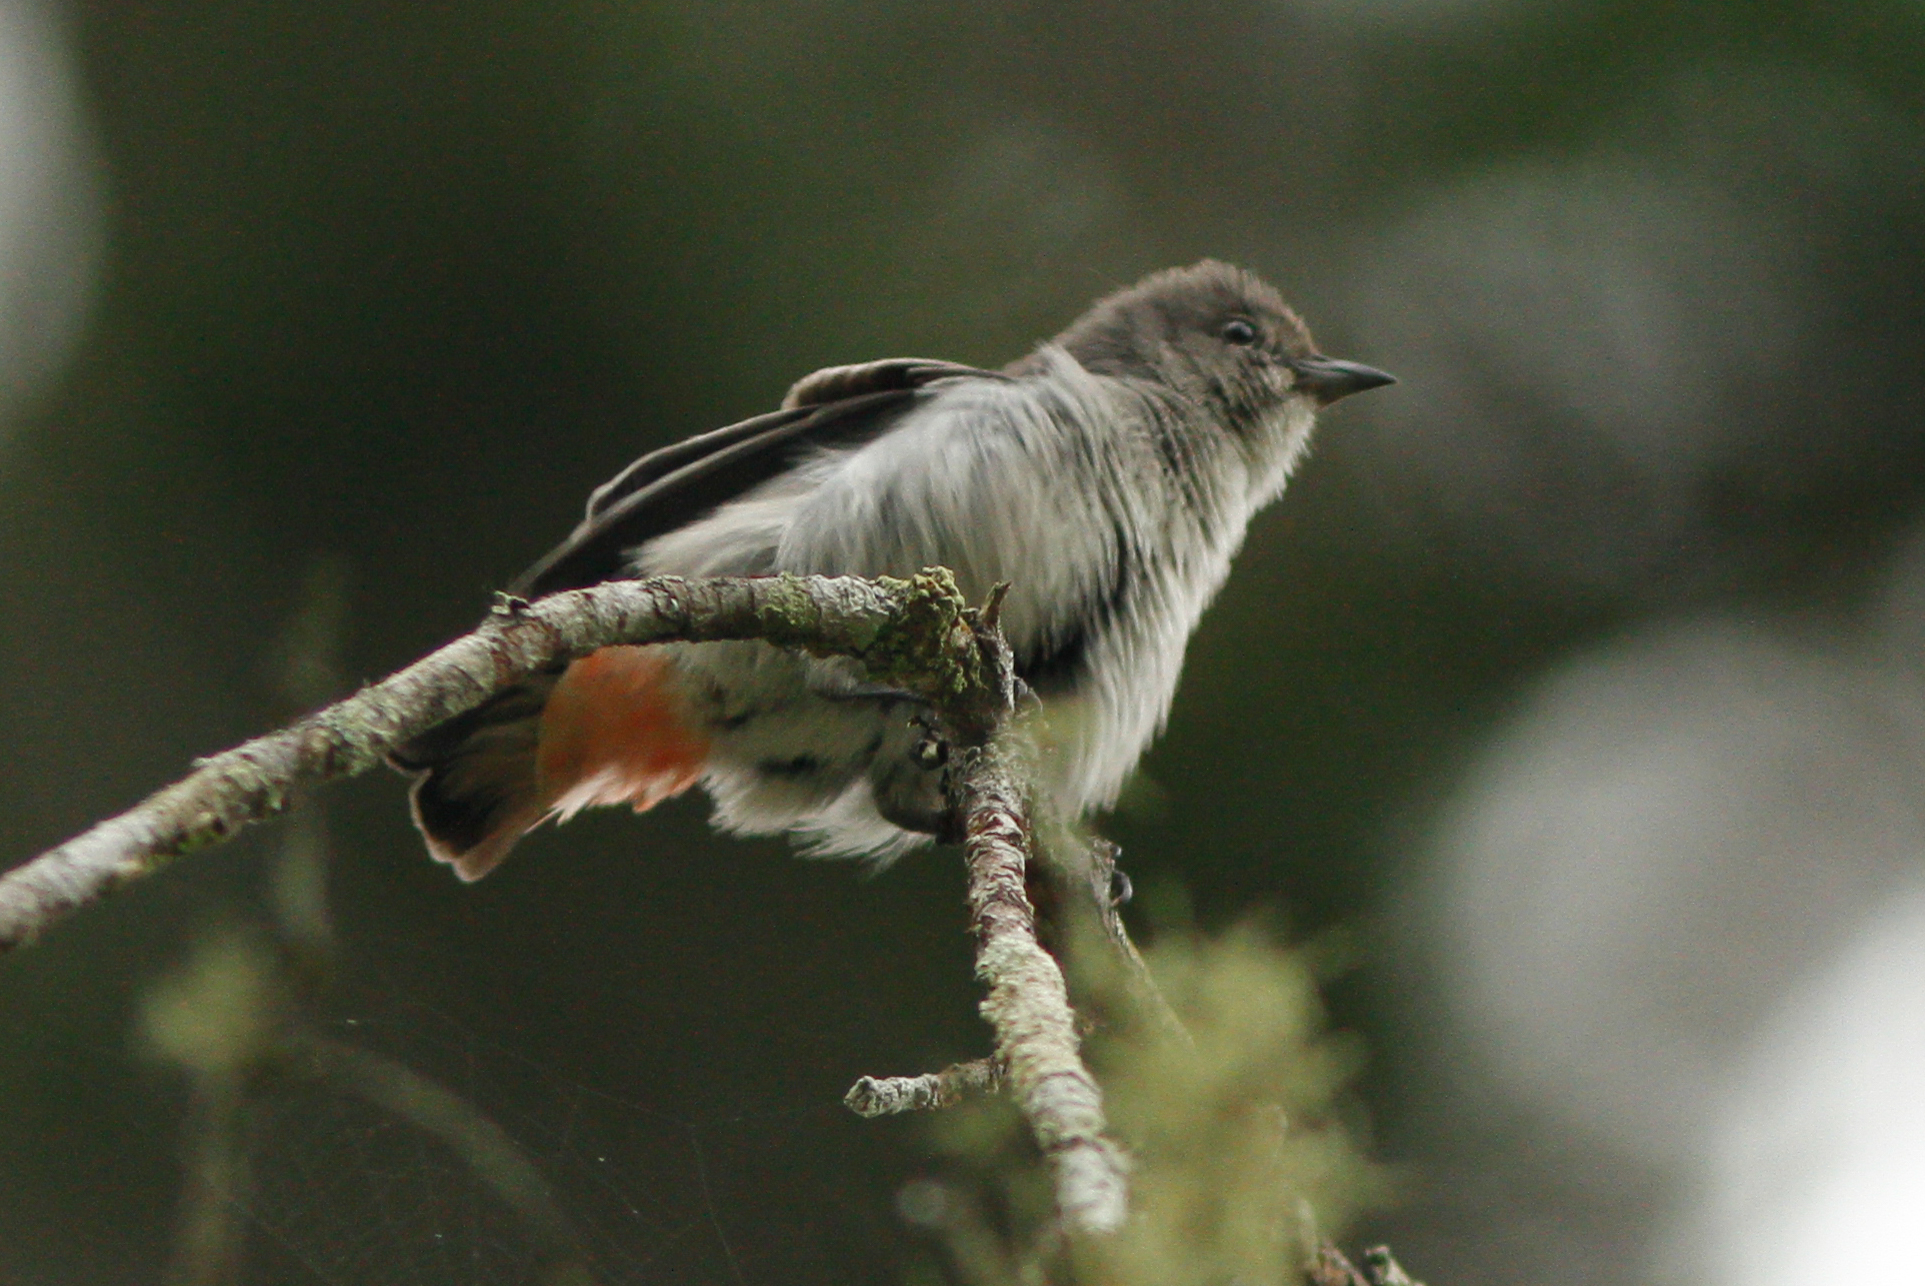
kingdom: Animalia
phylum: Chordata
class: Aves
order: Passeriformes
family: Dicaeidae
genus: Dicaeum
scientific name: Dicaeum hirundinaceum
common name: Mistletoebird
